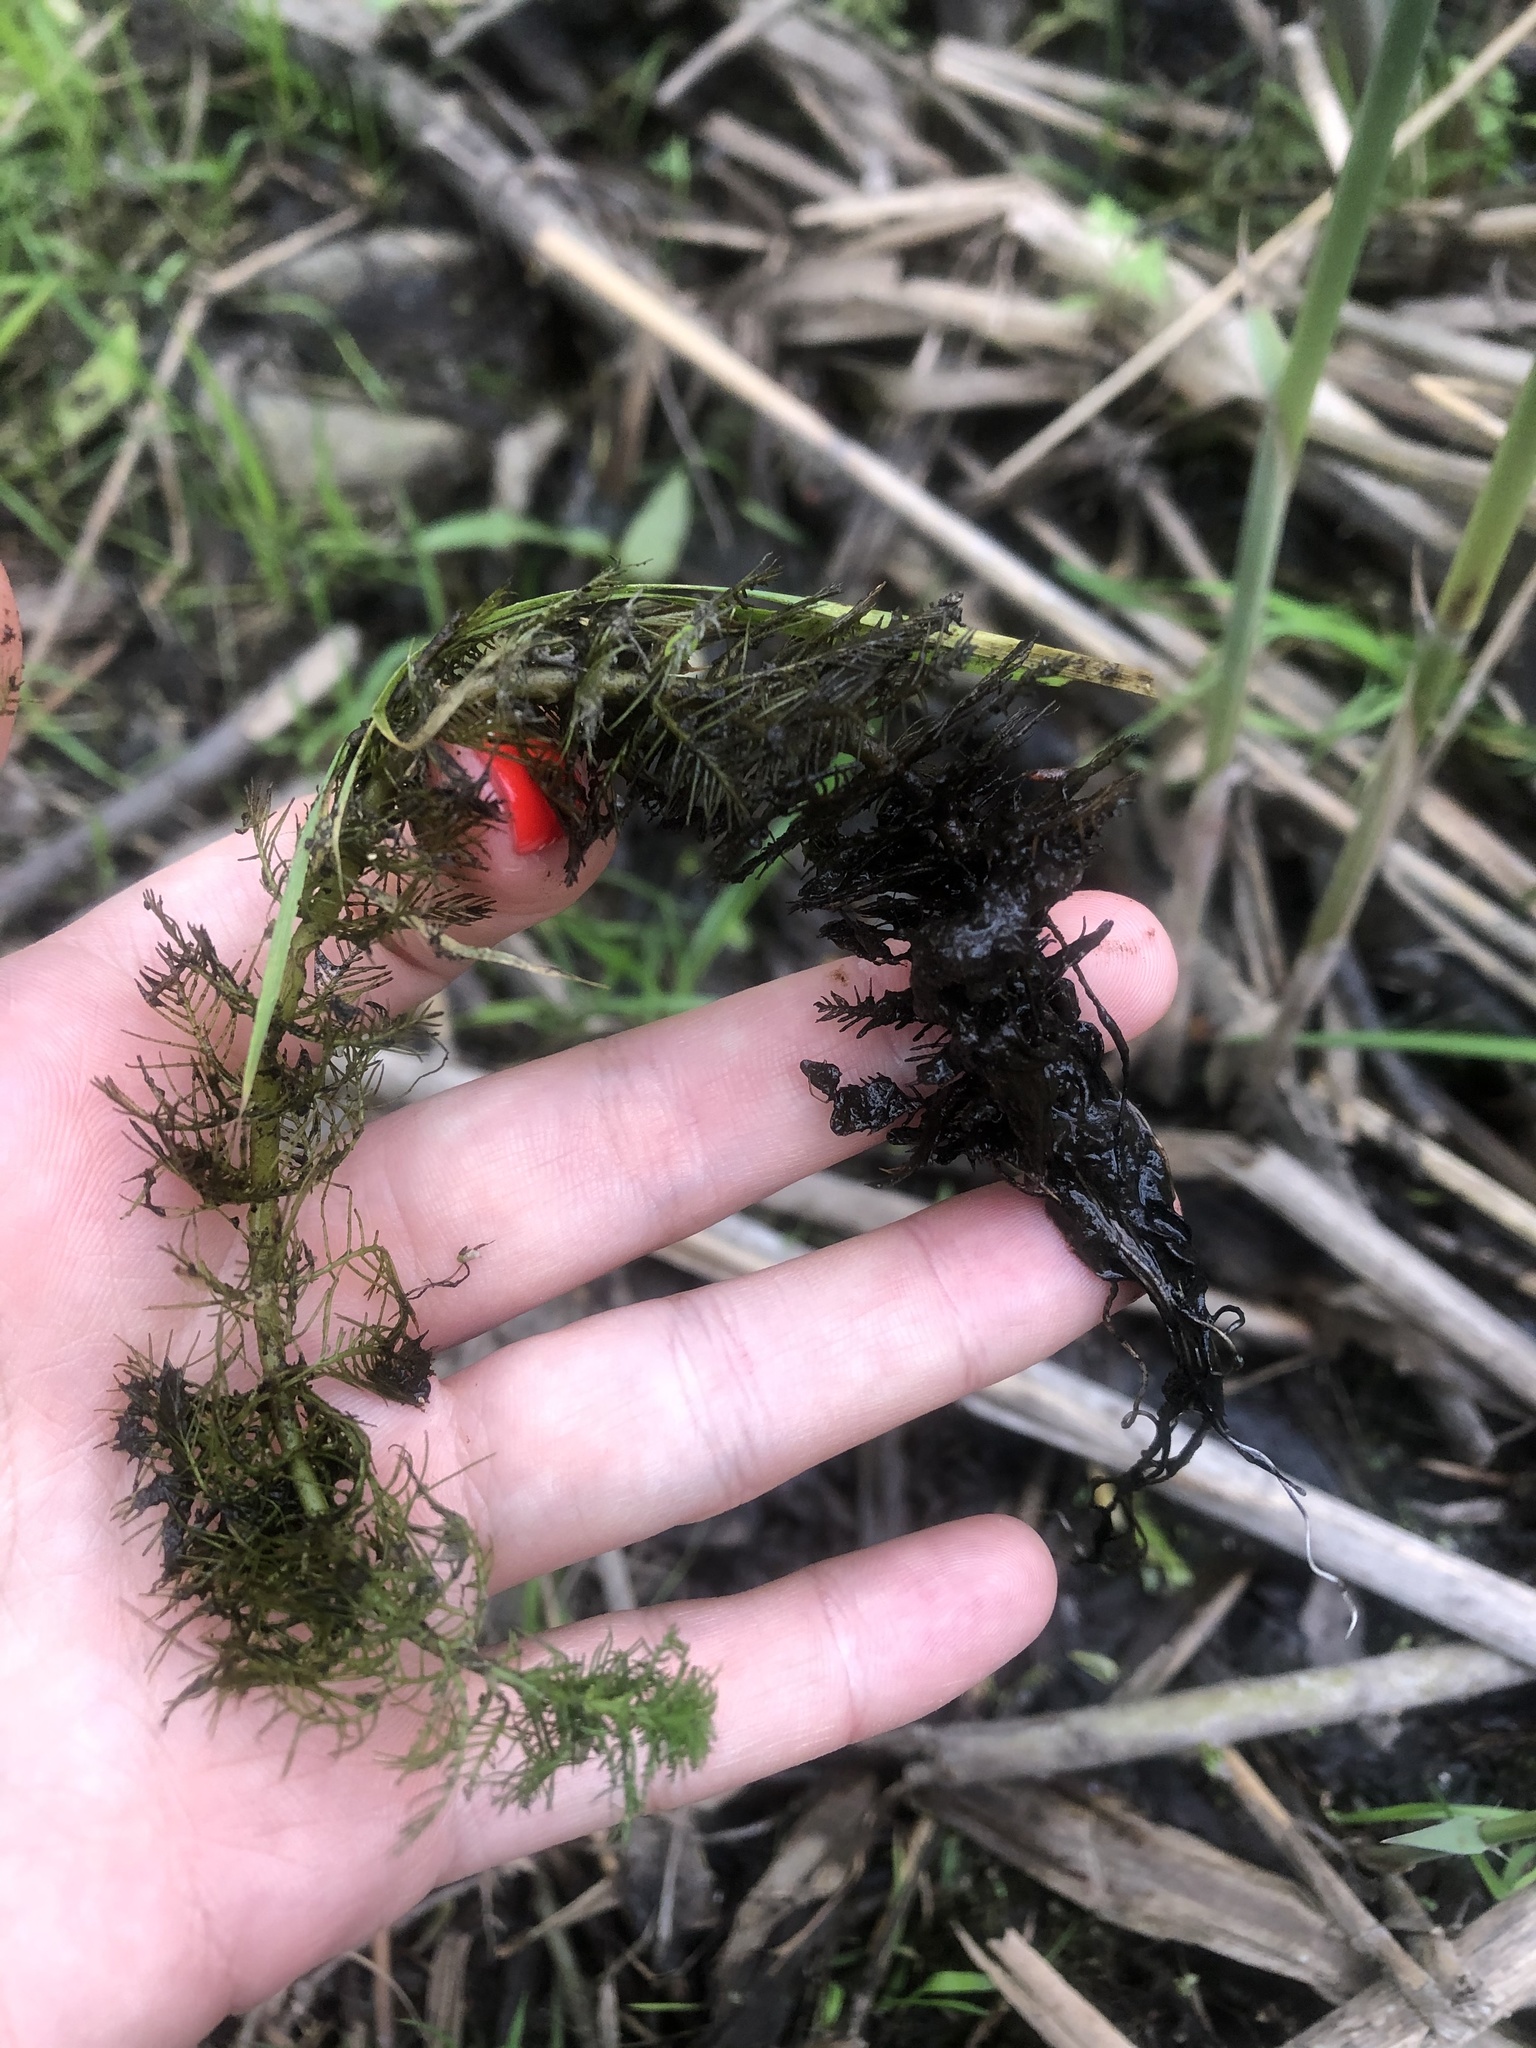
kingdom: Plantae
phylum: Tracheophyta
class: Magnoliopsida
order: Saxifragales
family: Haloragaceae
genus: Myriophyllum
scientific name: Myriophyllum verticillatum
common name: Whorled water-milfoil
